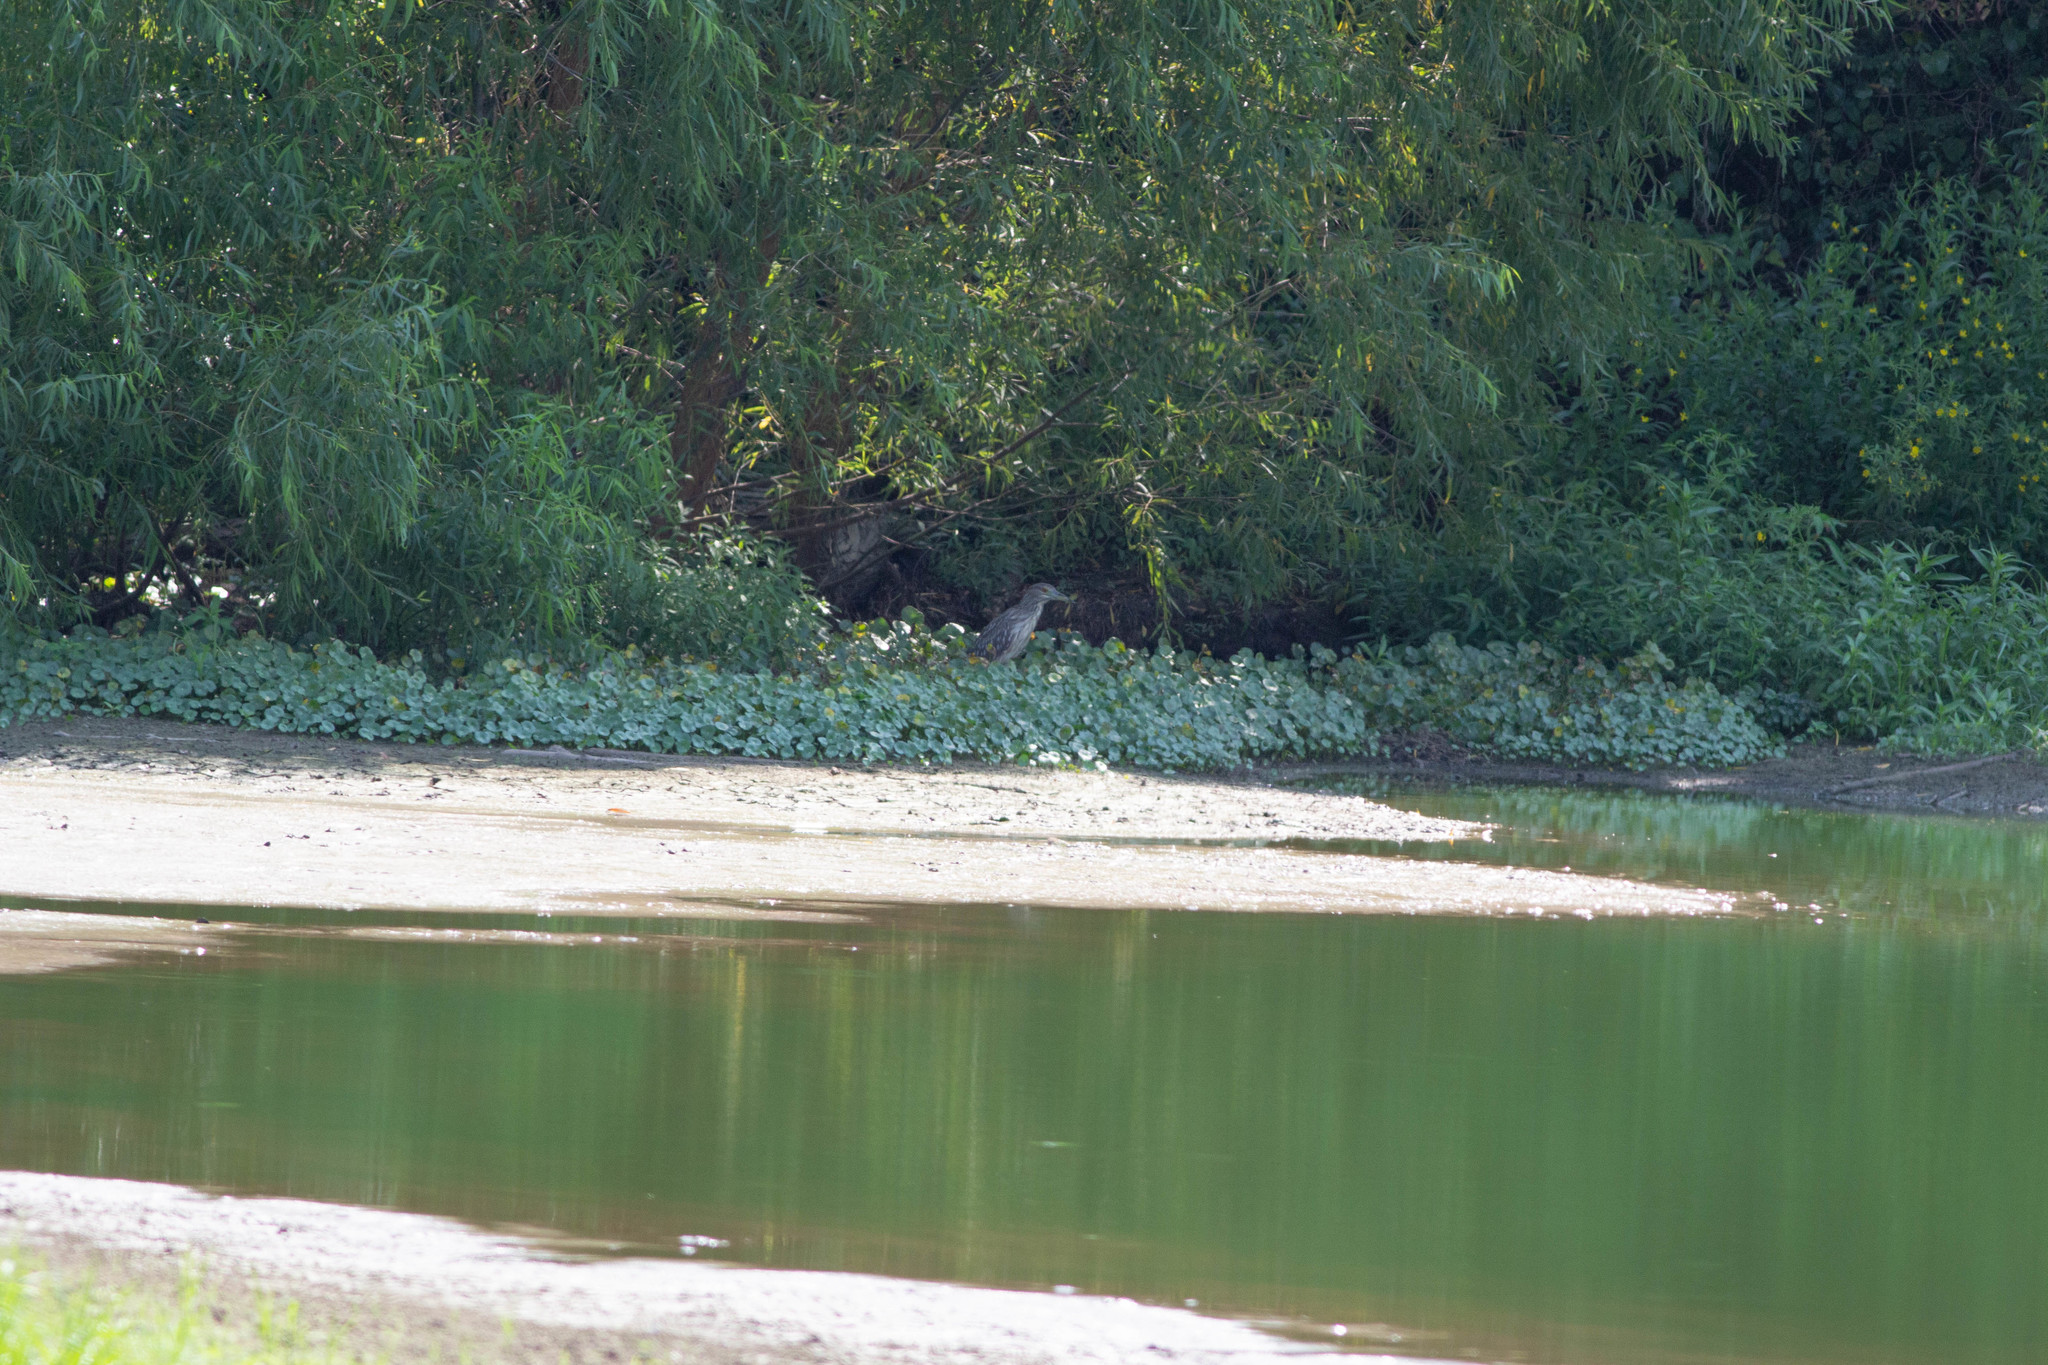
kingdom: Animalia
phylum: Chordata
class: Aves
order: Pelecaniformes
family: Ardeidae
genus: Nycticorax
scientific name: Nycticorax nycticorax
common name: Black-crowned night heron
